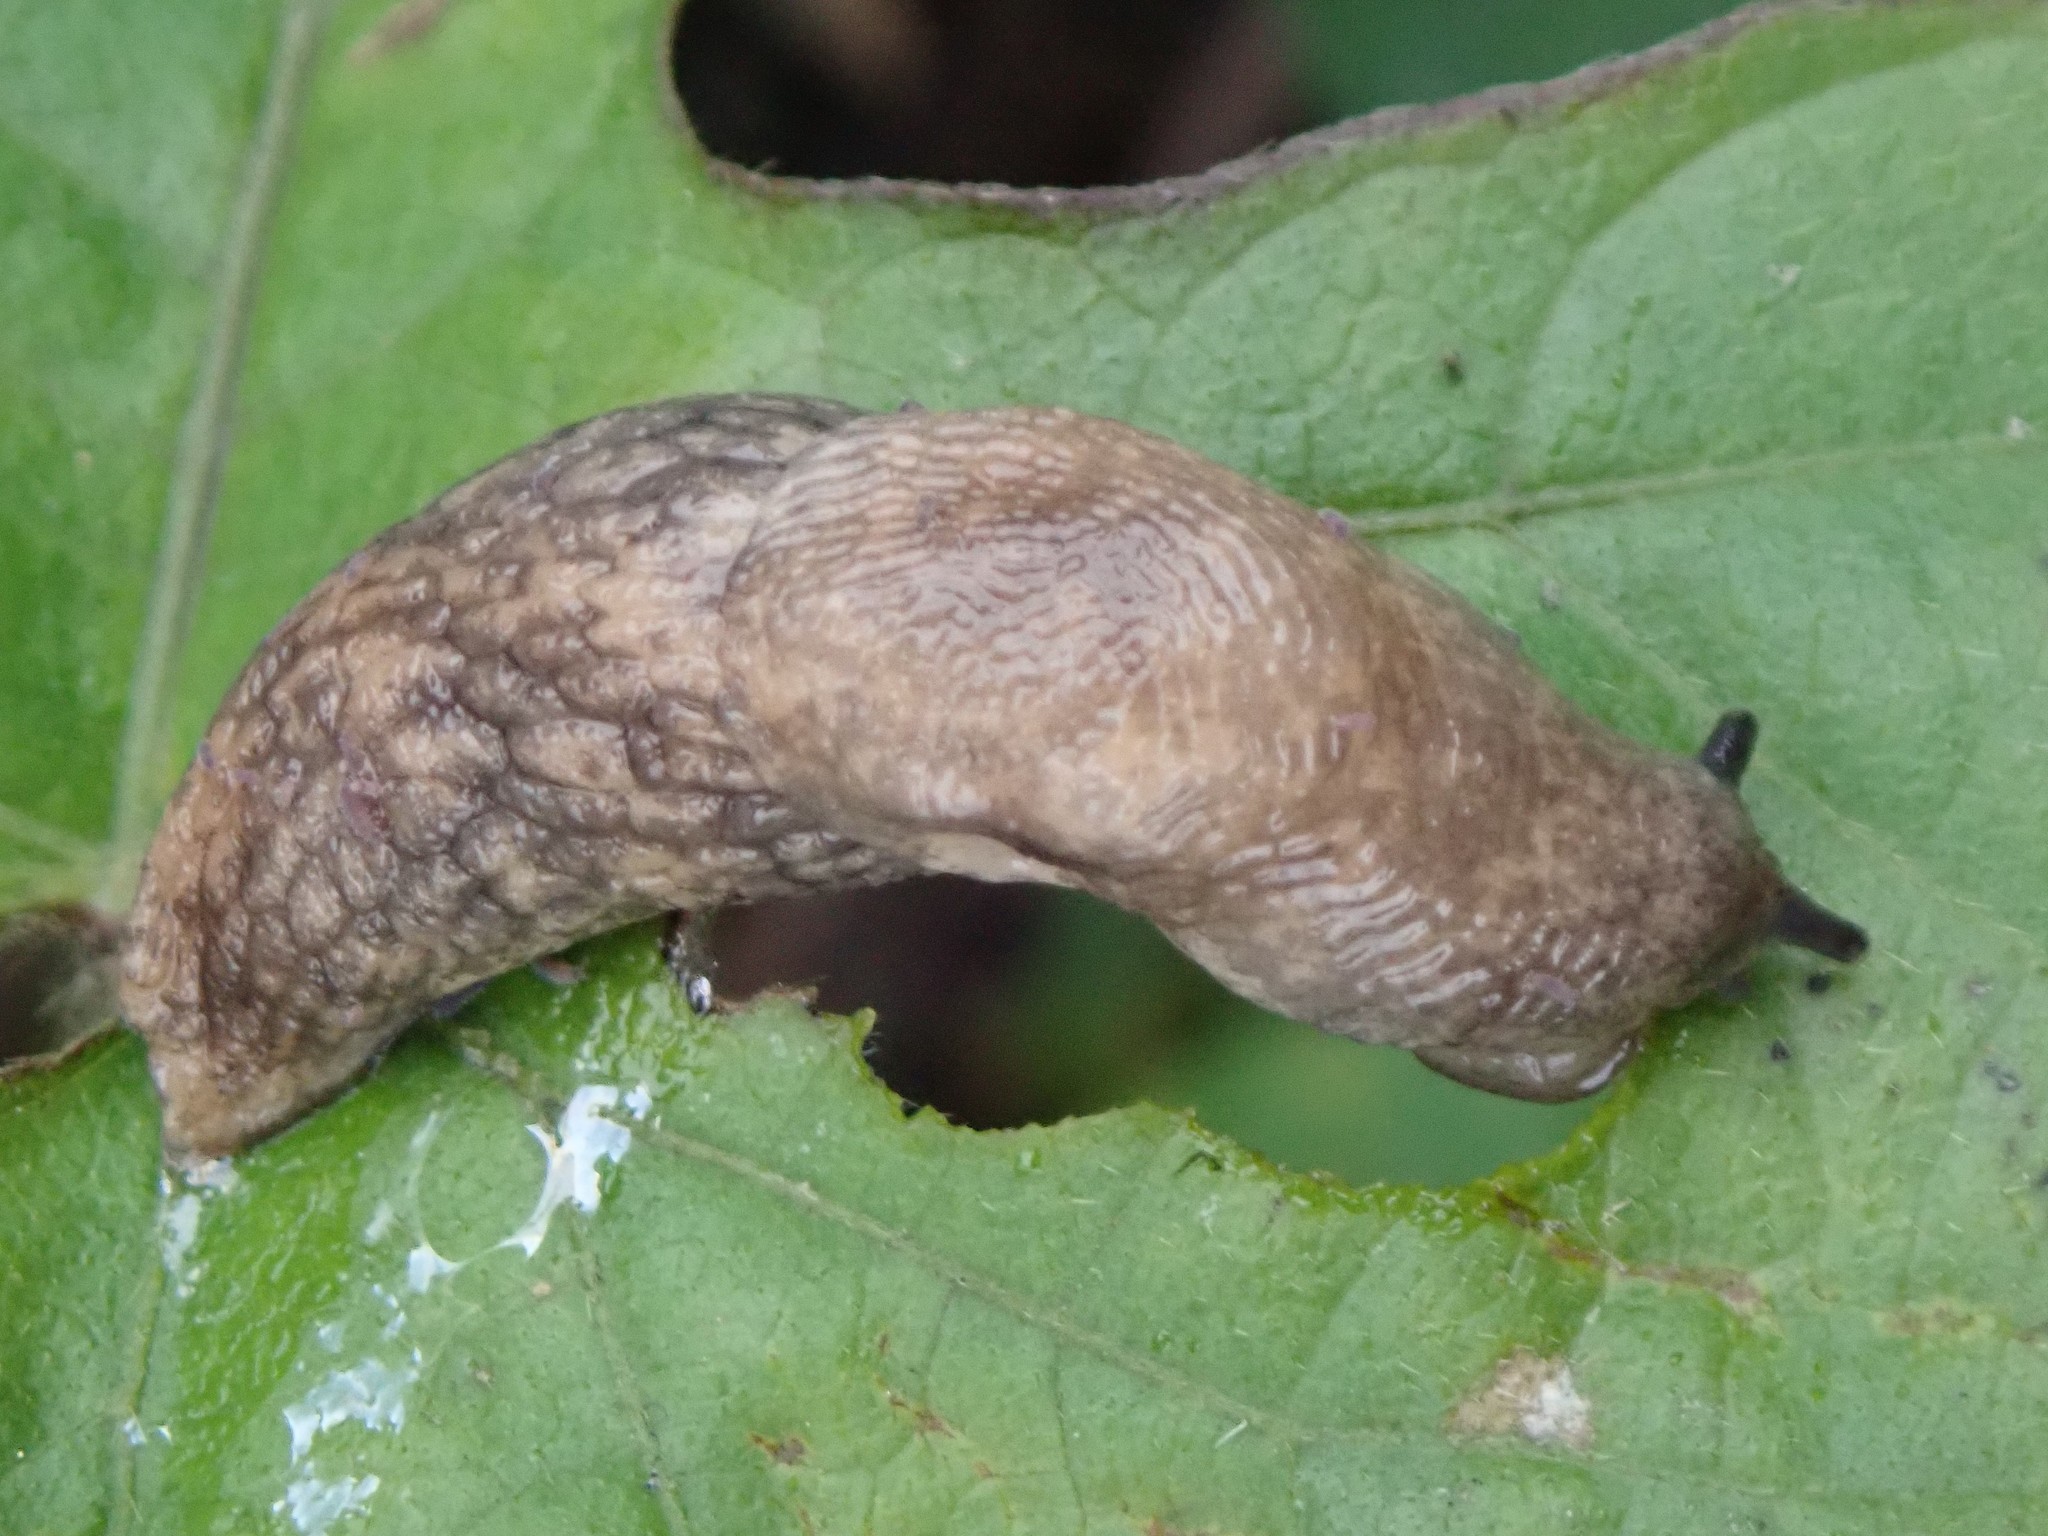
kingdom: Animalia
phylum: Mollusca
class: Gastropoda
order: Stylommatophora
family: Agriolimacidae
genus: Deroceras
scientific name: Deroceras reticulatum
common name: Gray field slug
